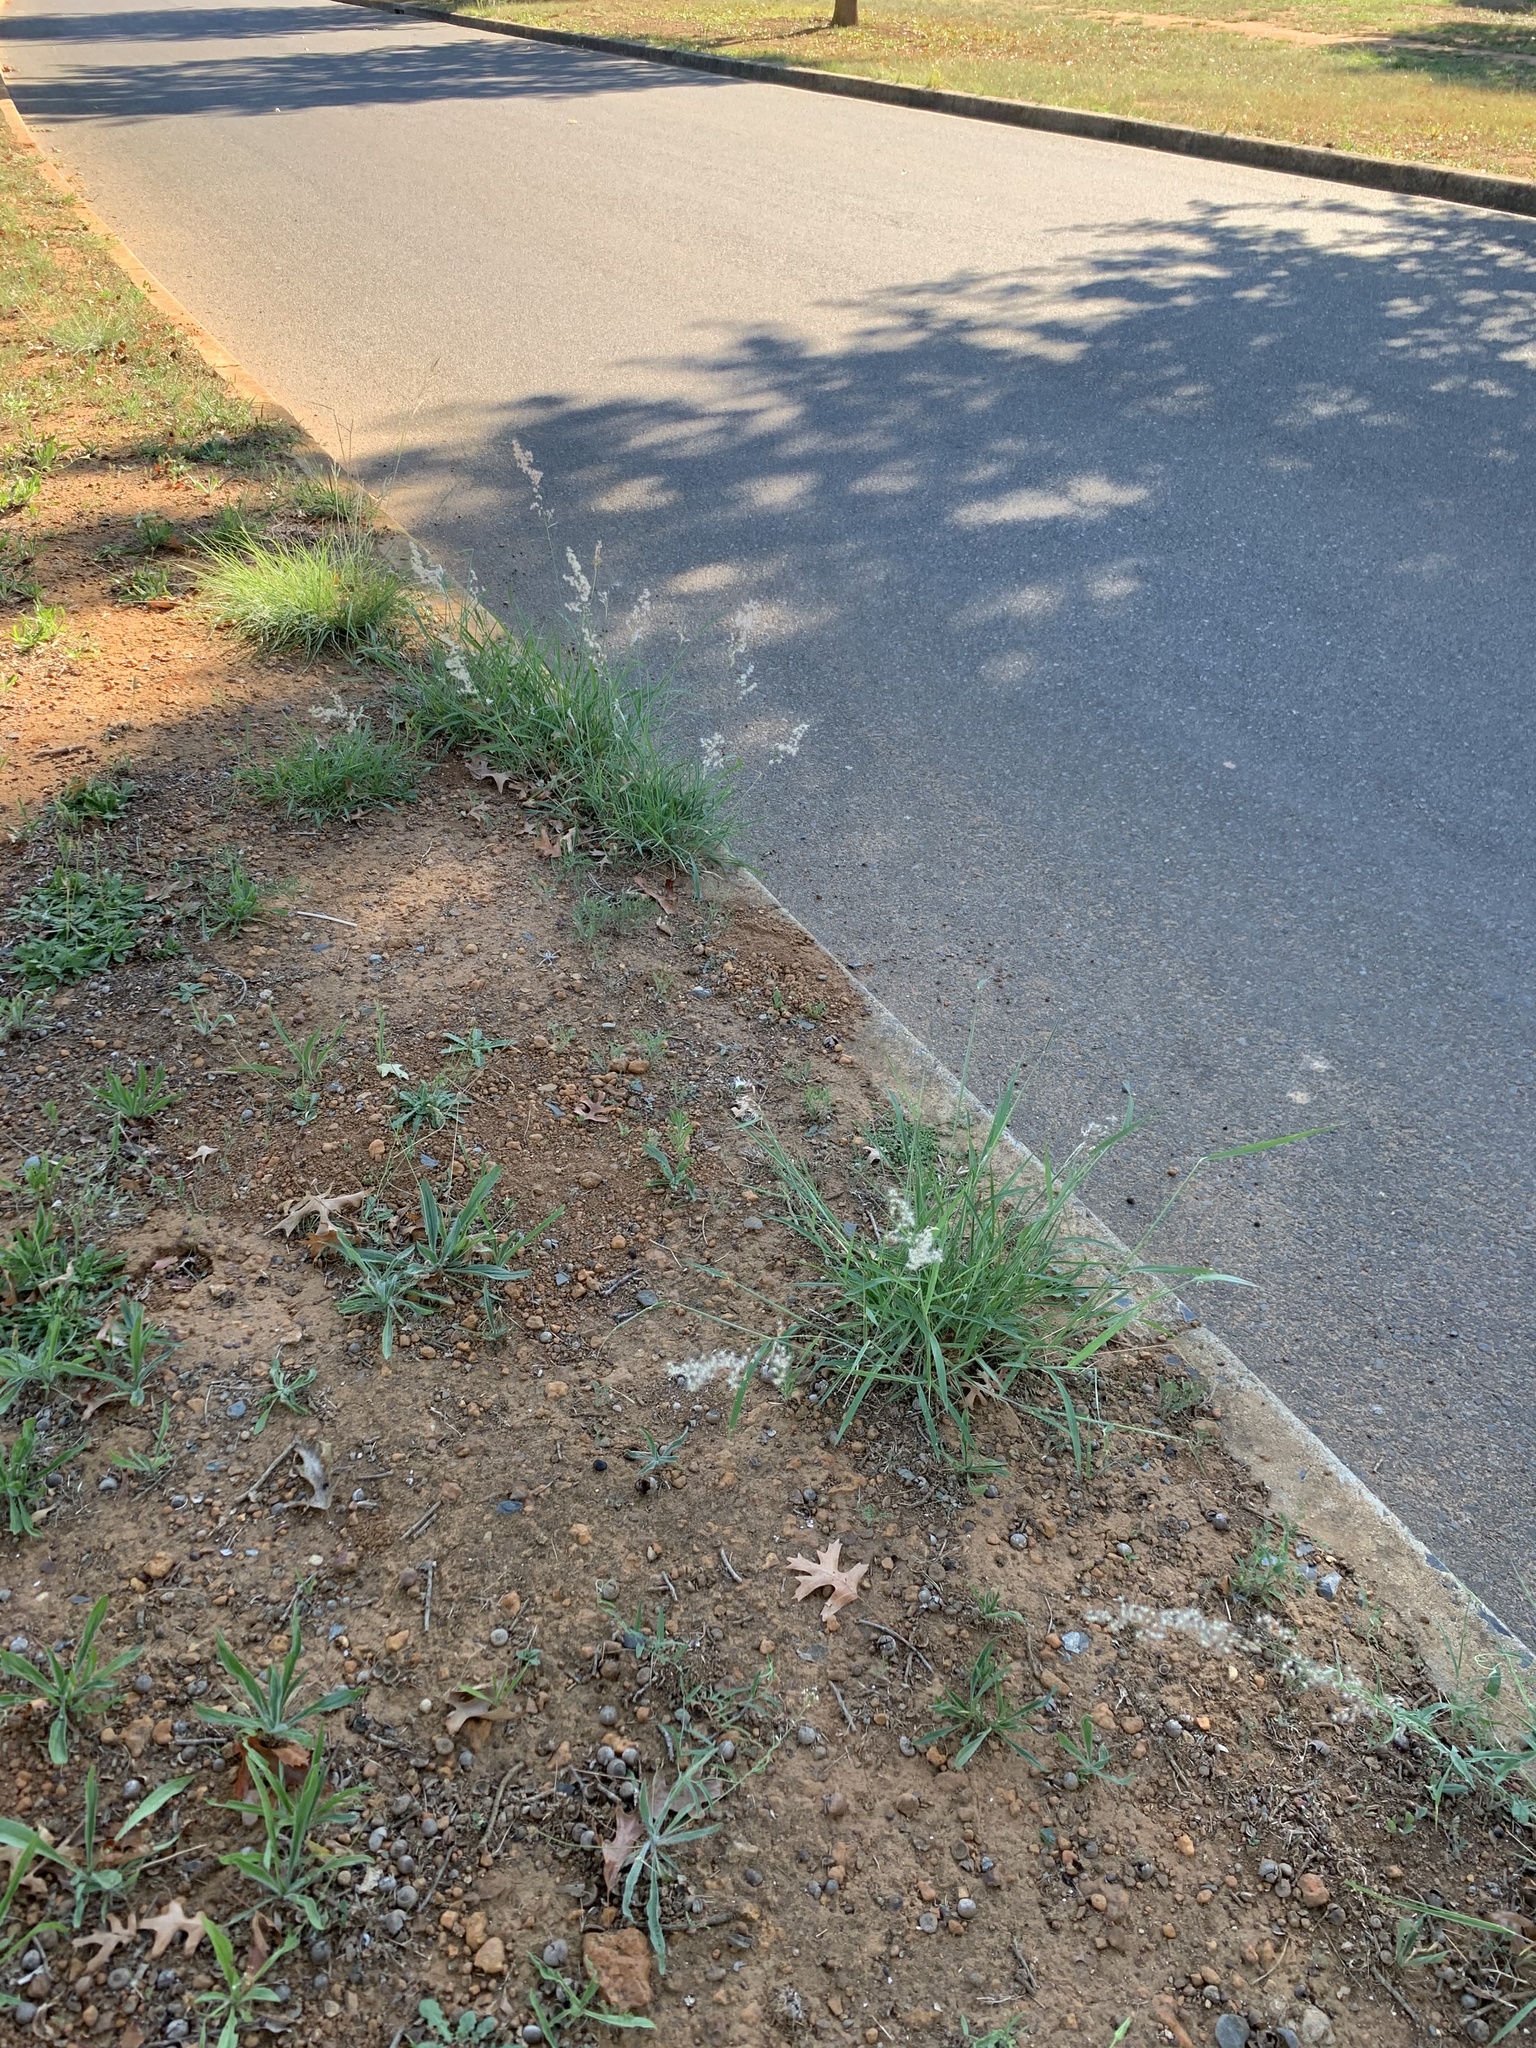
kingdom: Plantae
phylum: Tracheophyta
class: Liliopsida
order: Poales
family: Poaceae
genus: Melinis
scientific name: Melinis repens
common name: Rose natal grass
